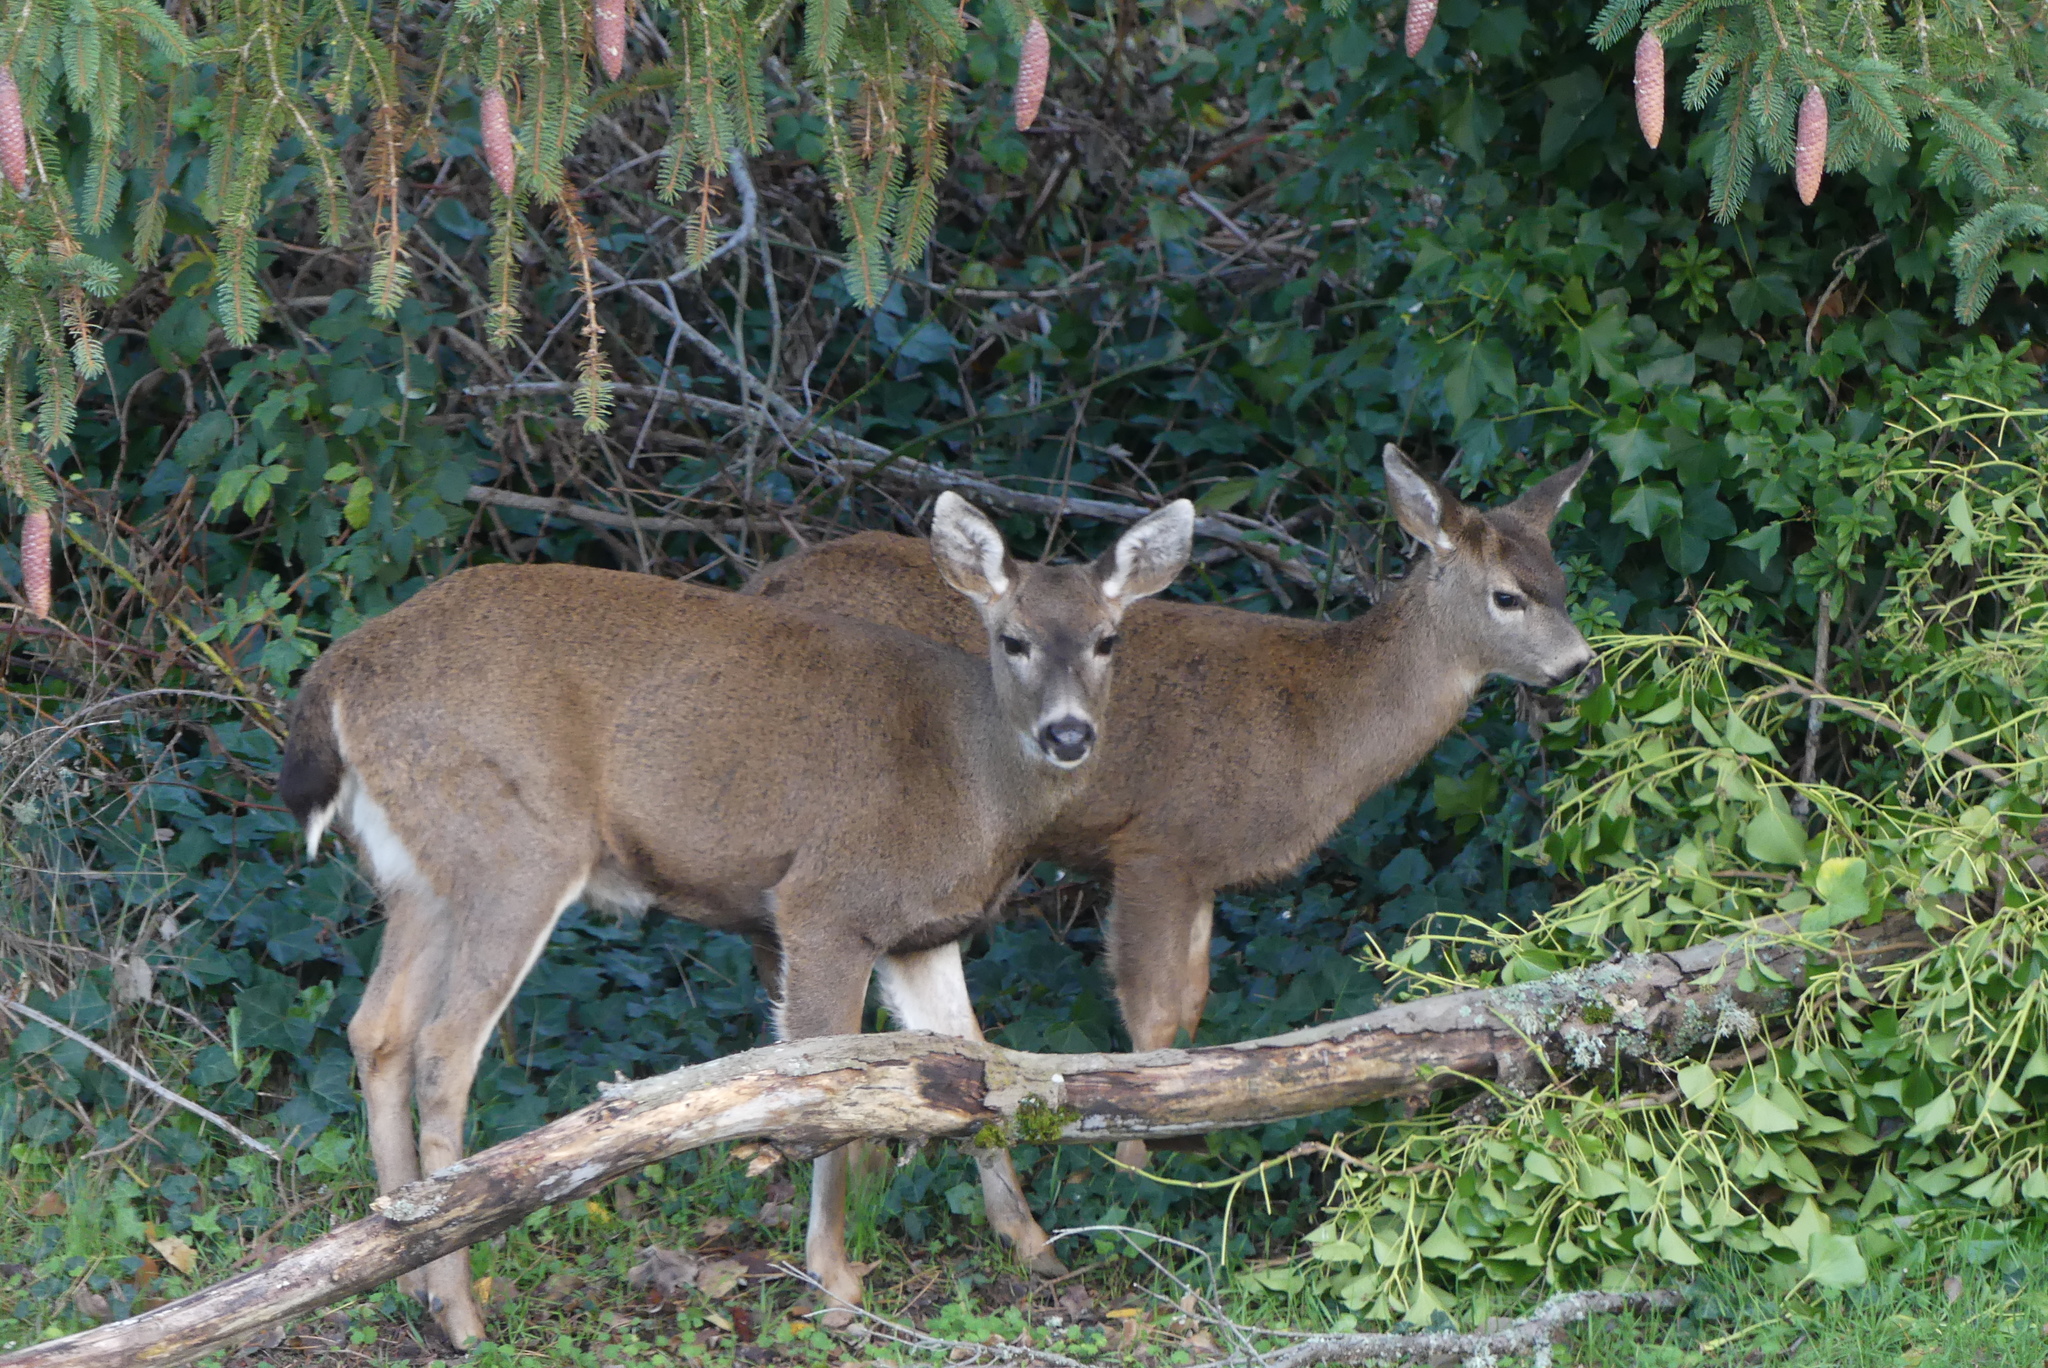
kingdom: Animalia
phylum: Chordata
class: Mammalia
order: Artiodactyla
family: Cervidae
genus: Odocoileus
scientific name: Odocoileus hemionus
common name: Mule deer
